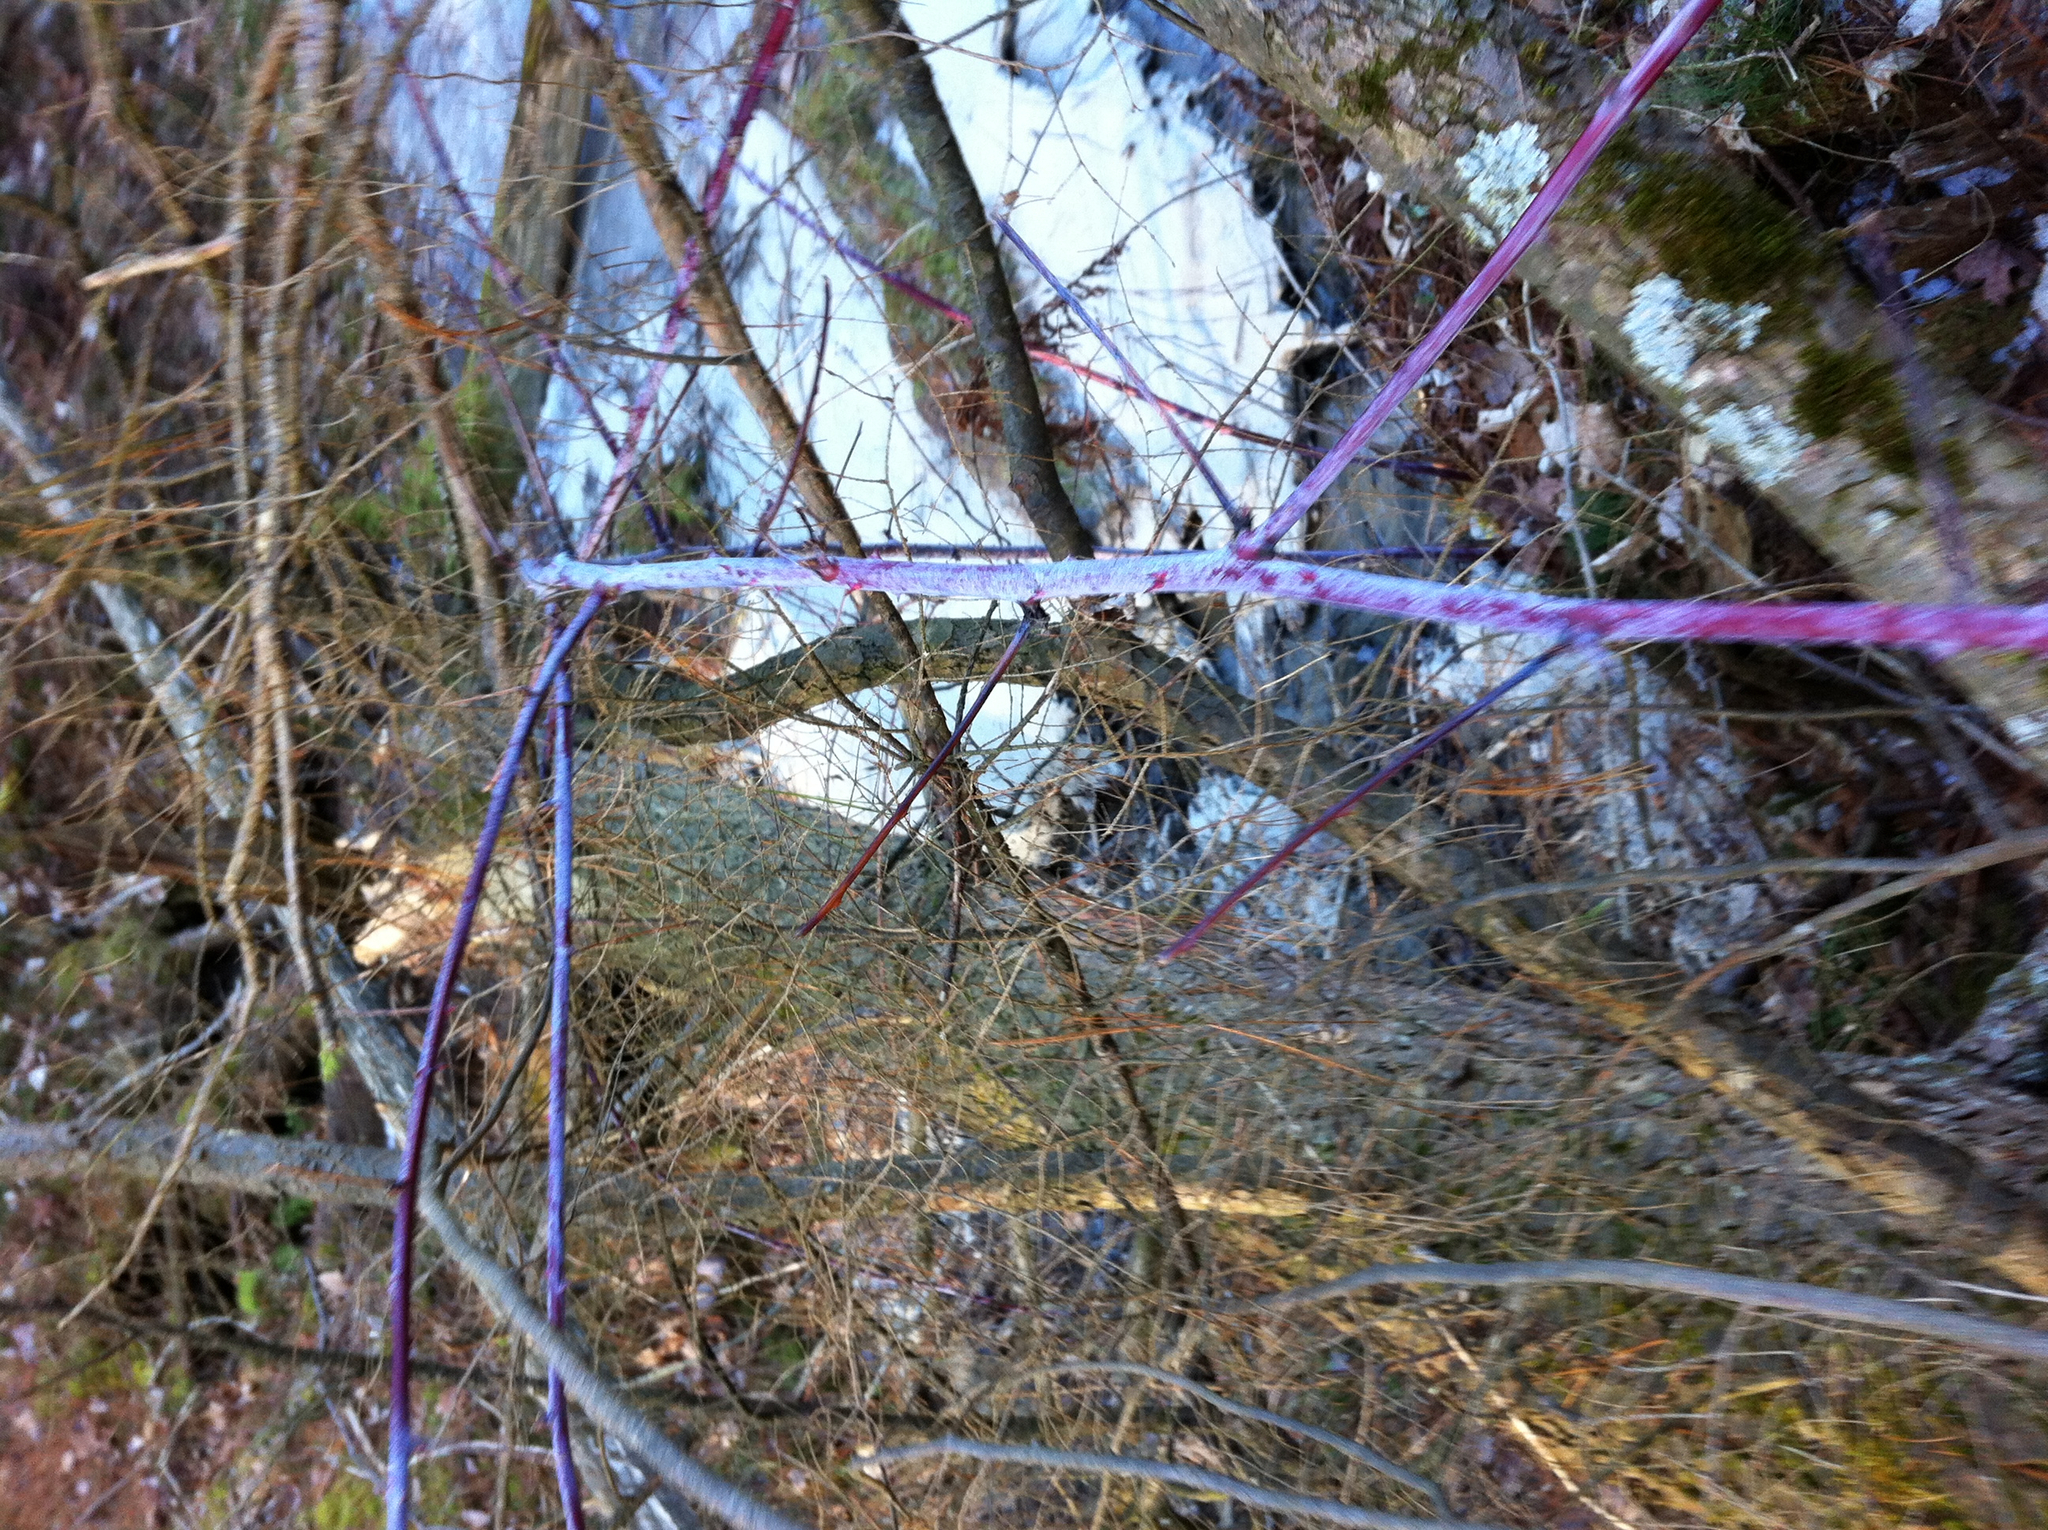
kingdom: Plantae
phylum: Tracheophyta
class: Magnoliopsida
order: Rosales
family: Rosaceae
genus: Rubus
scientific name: Rubus occidentalis
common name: Black raspberry
